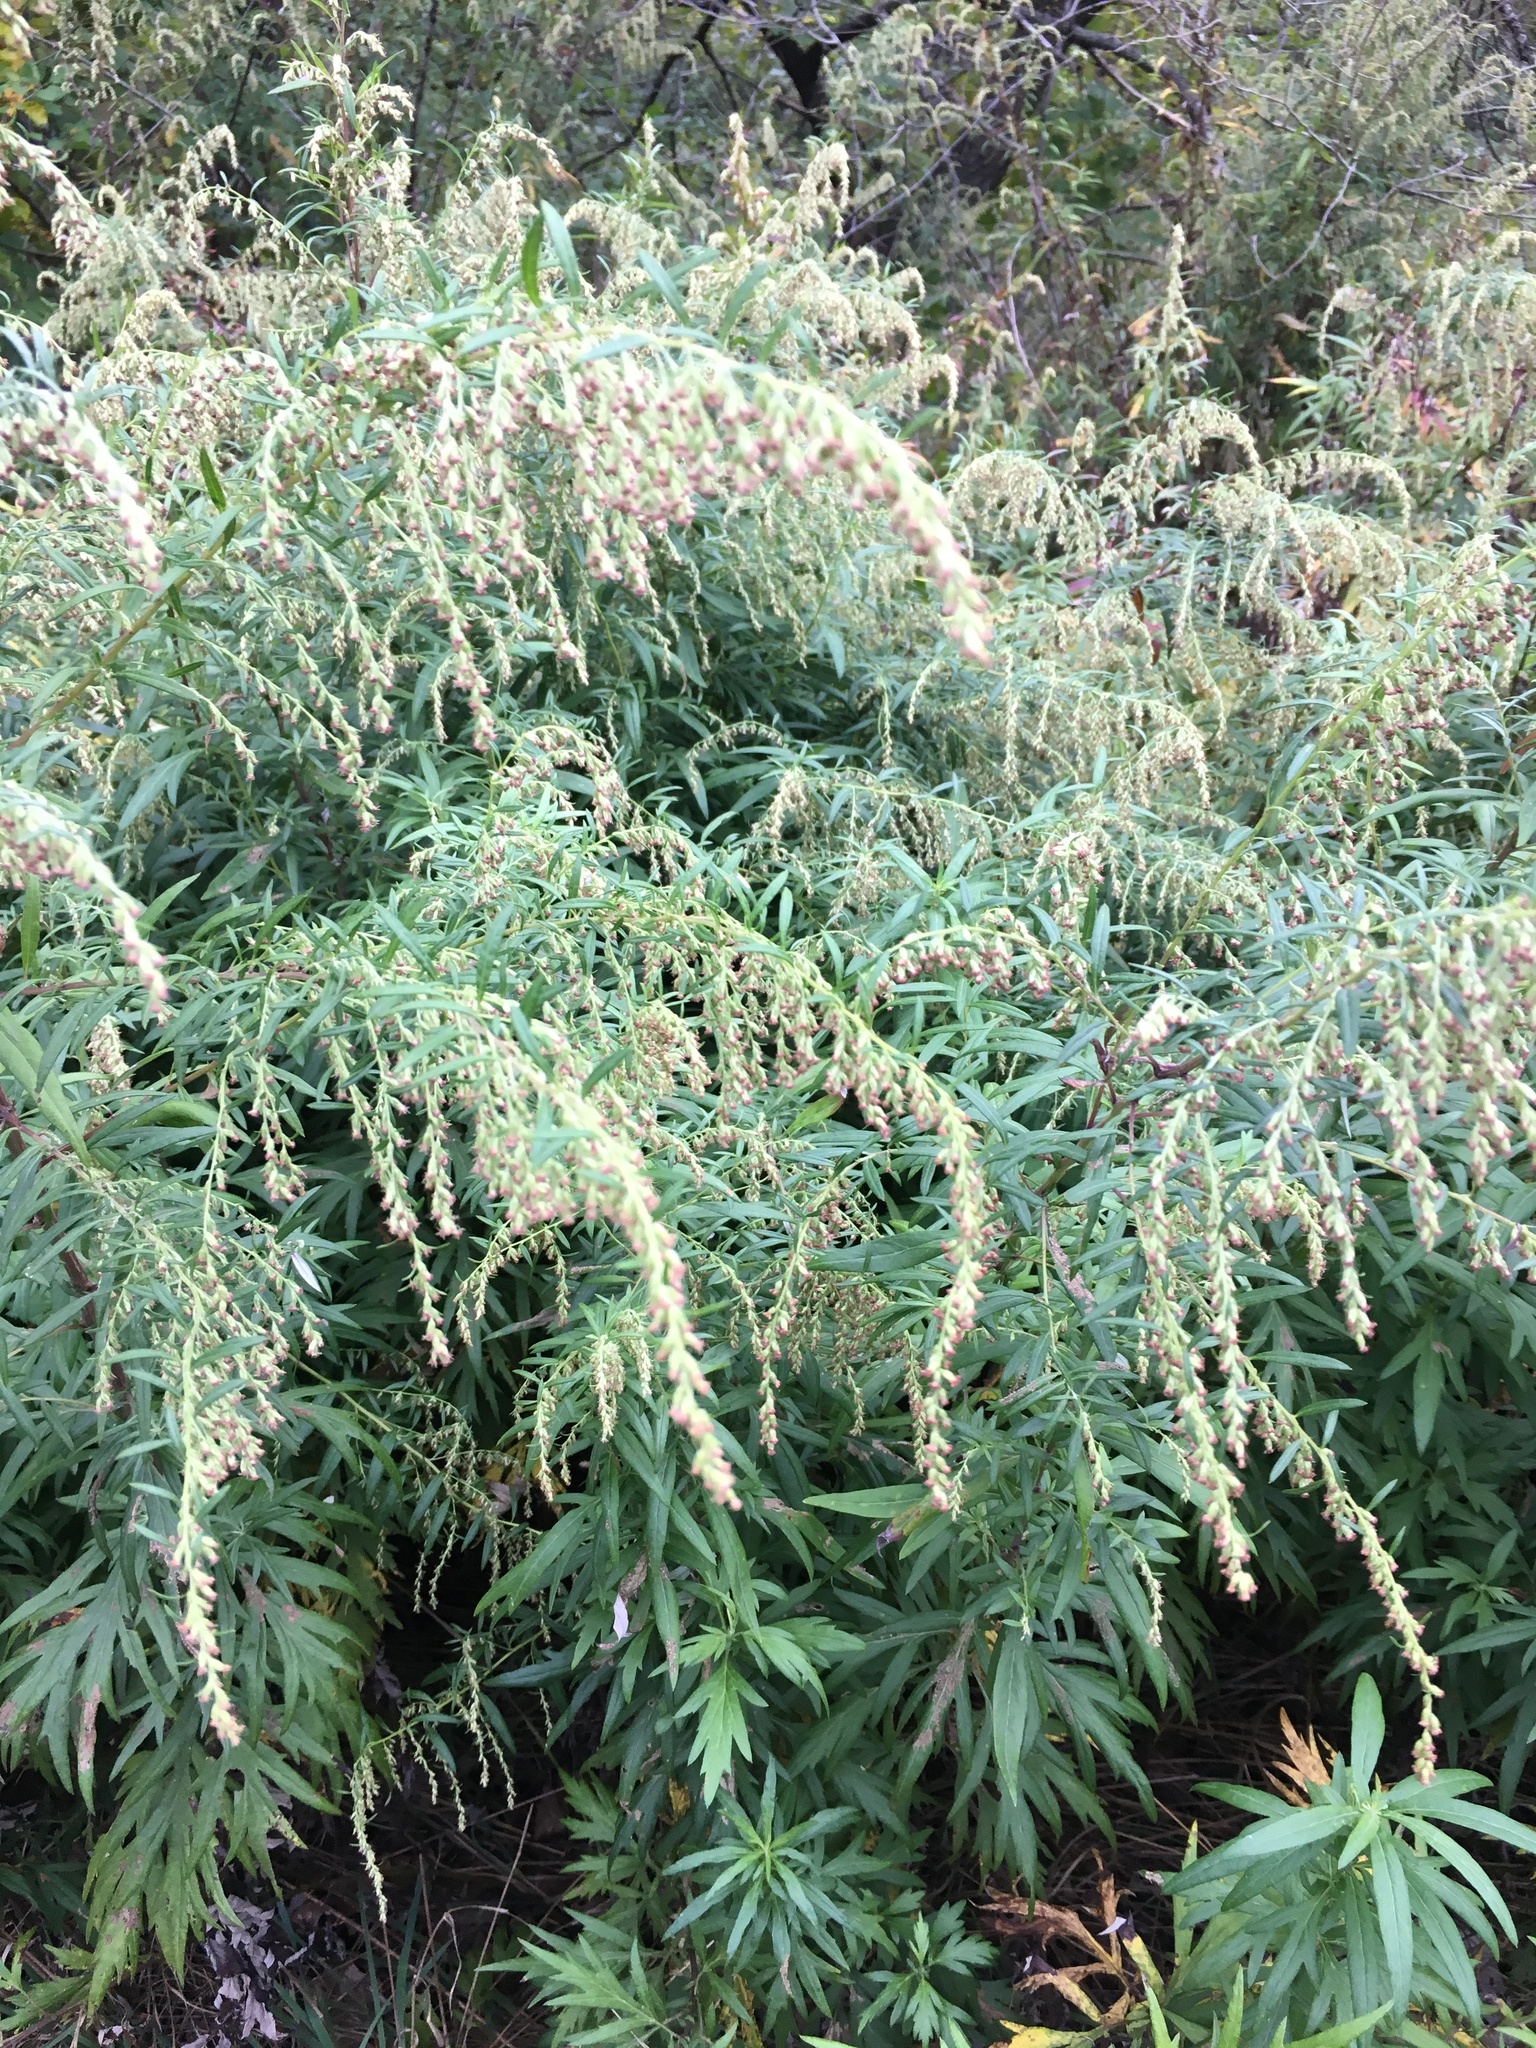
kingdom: Plantae
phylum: Tracheophyta
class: Magnoliopsida
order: Asterales
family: Asteraceae
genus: Artemisia
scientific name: Artemisia vulgaris
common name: Mugwort
